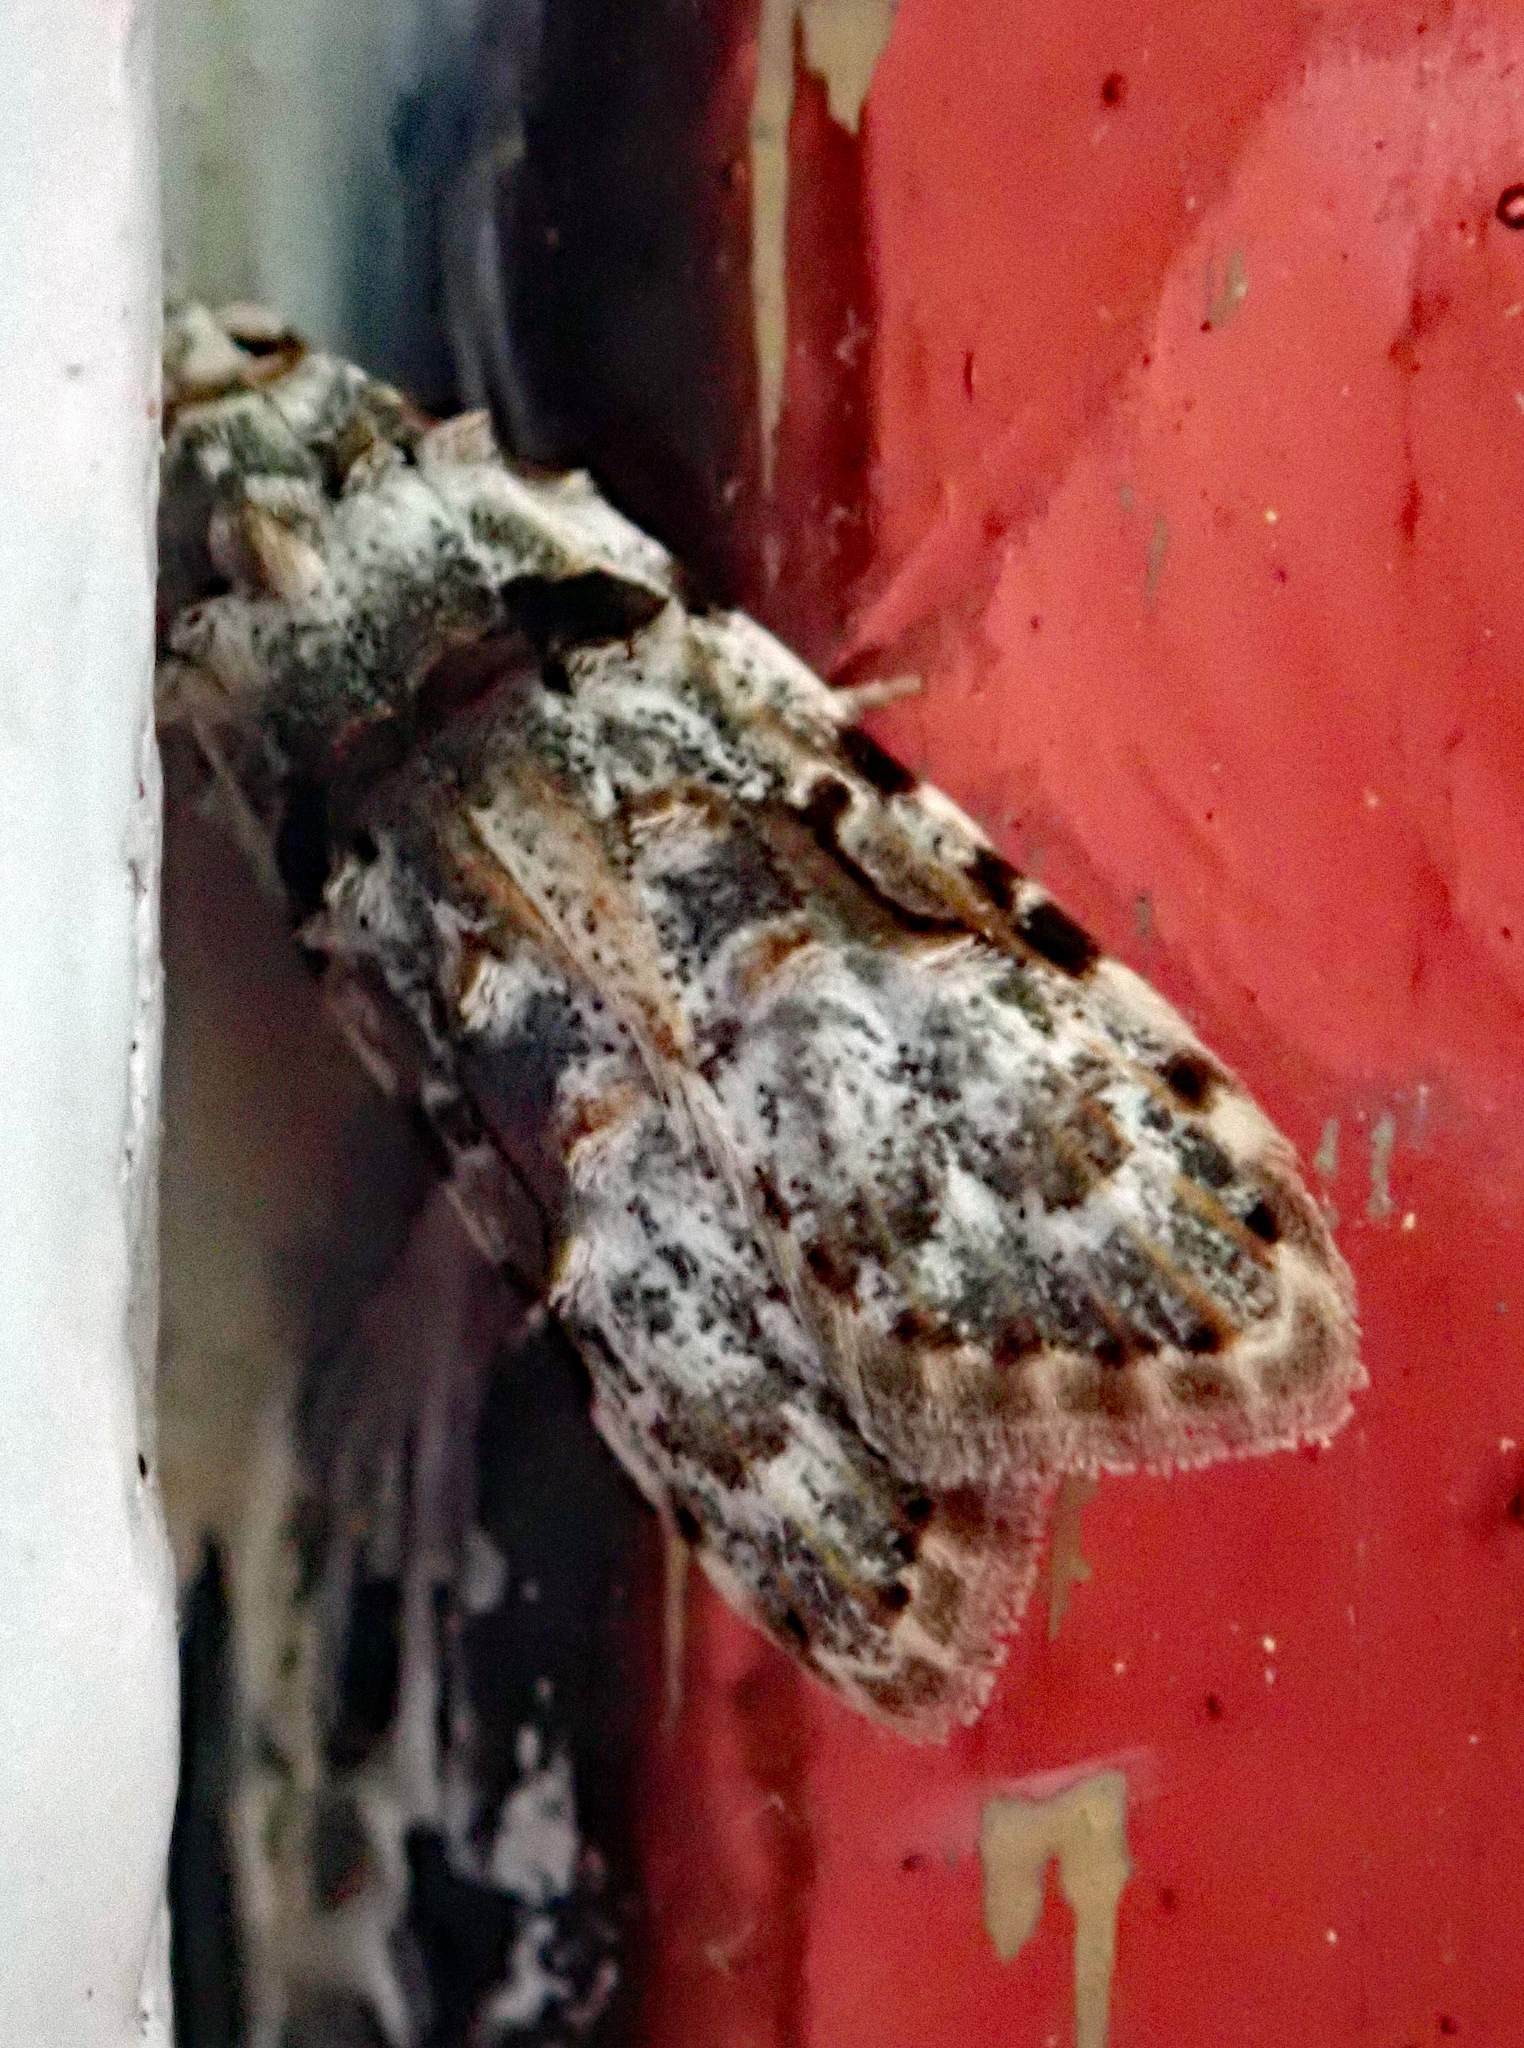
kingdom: Animalia
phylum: Arthropoda
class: Insecta
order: Lepidoptera
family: Carposinidae
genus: Coscinoptycha
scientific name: Coscinoptycha improbana
